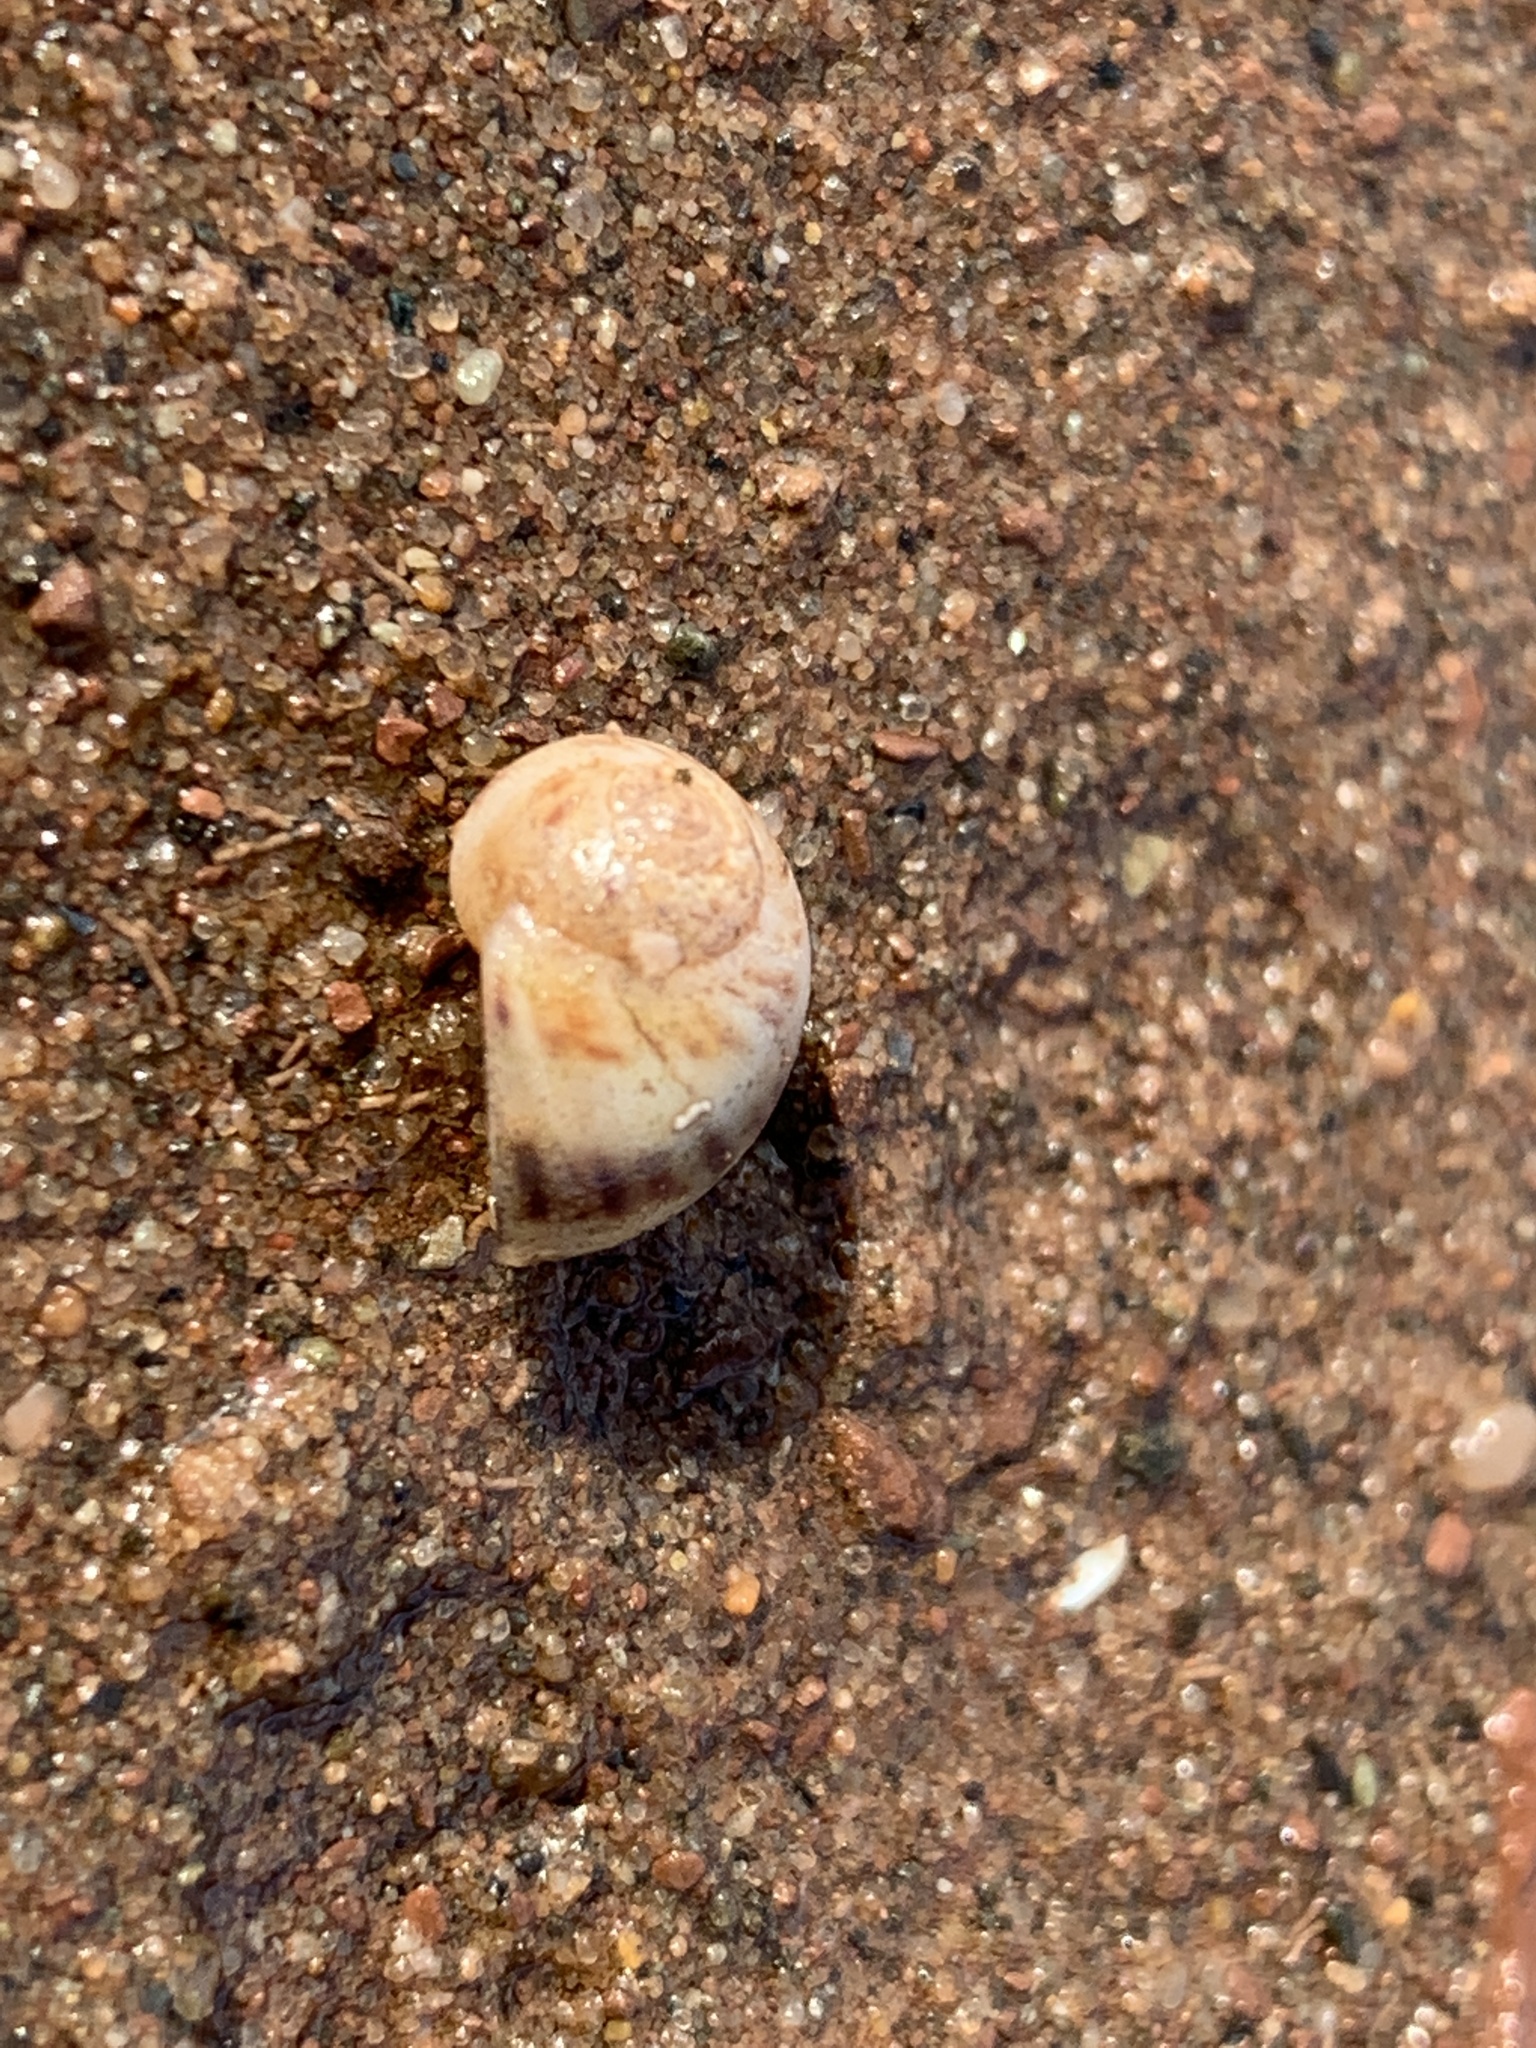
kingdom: Animalia
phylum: Mollusca
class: Gastropoda
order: Littorinimorpha
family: Naticidae
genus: Euspira
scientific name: Euspira triseriata
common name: Spotted moonsnail
